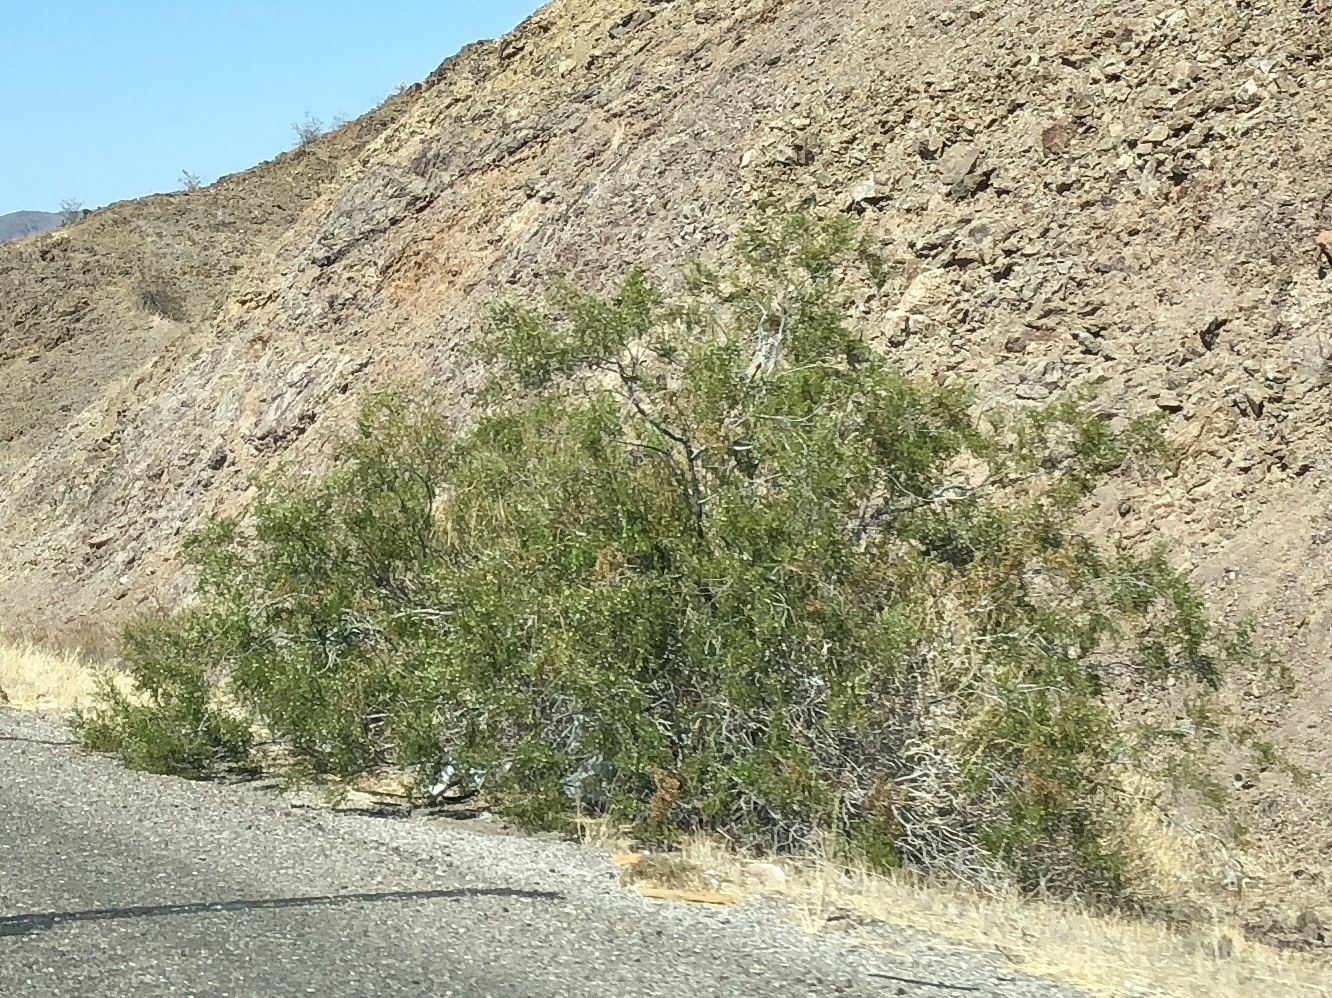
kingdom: Plantae
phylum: Tracheophyta
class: Magnoliopsida
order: Zygophyllales
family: Zygophyllaceae
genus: Larrea
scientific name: Larrea tridentata
